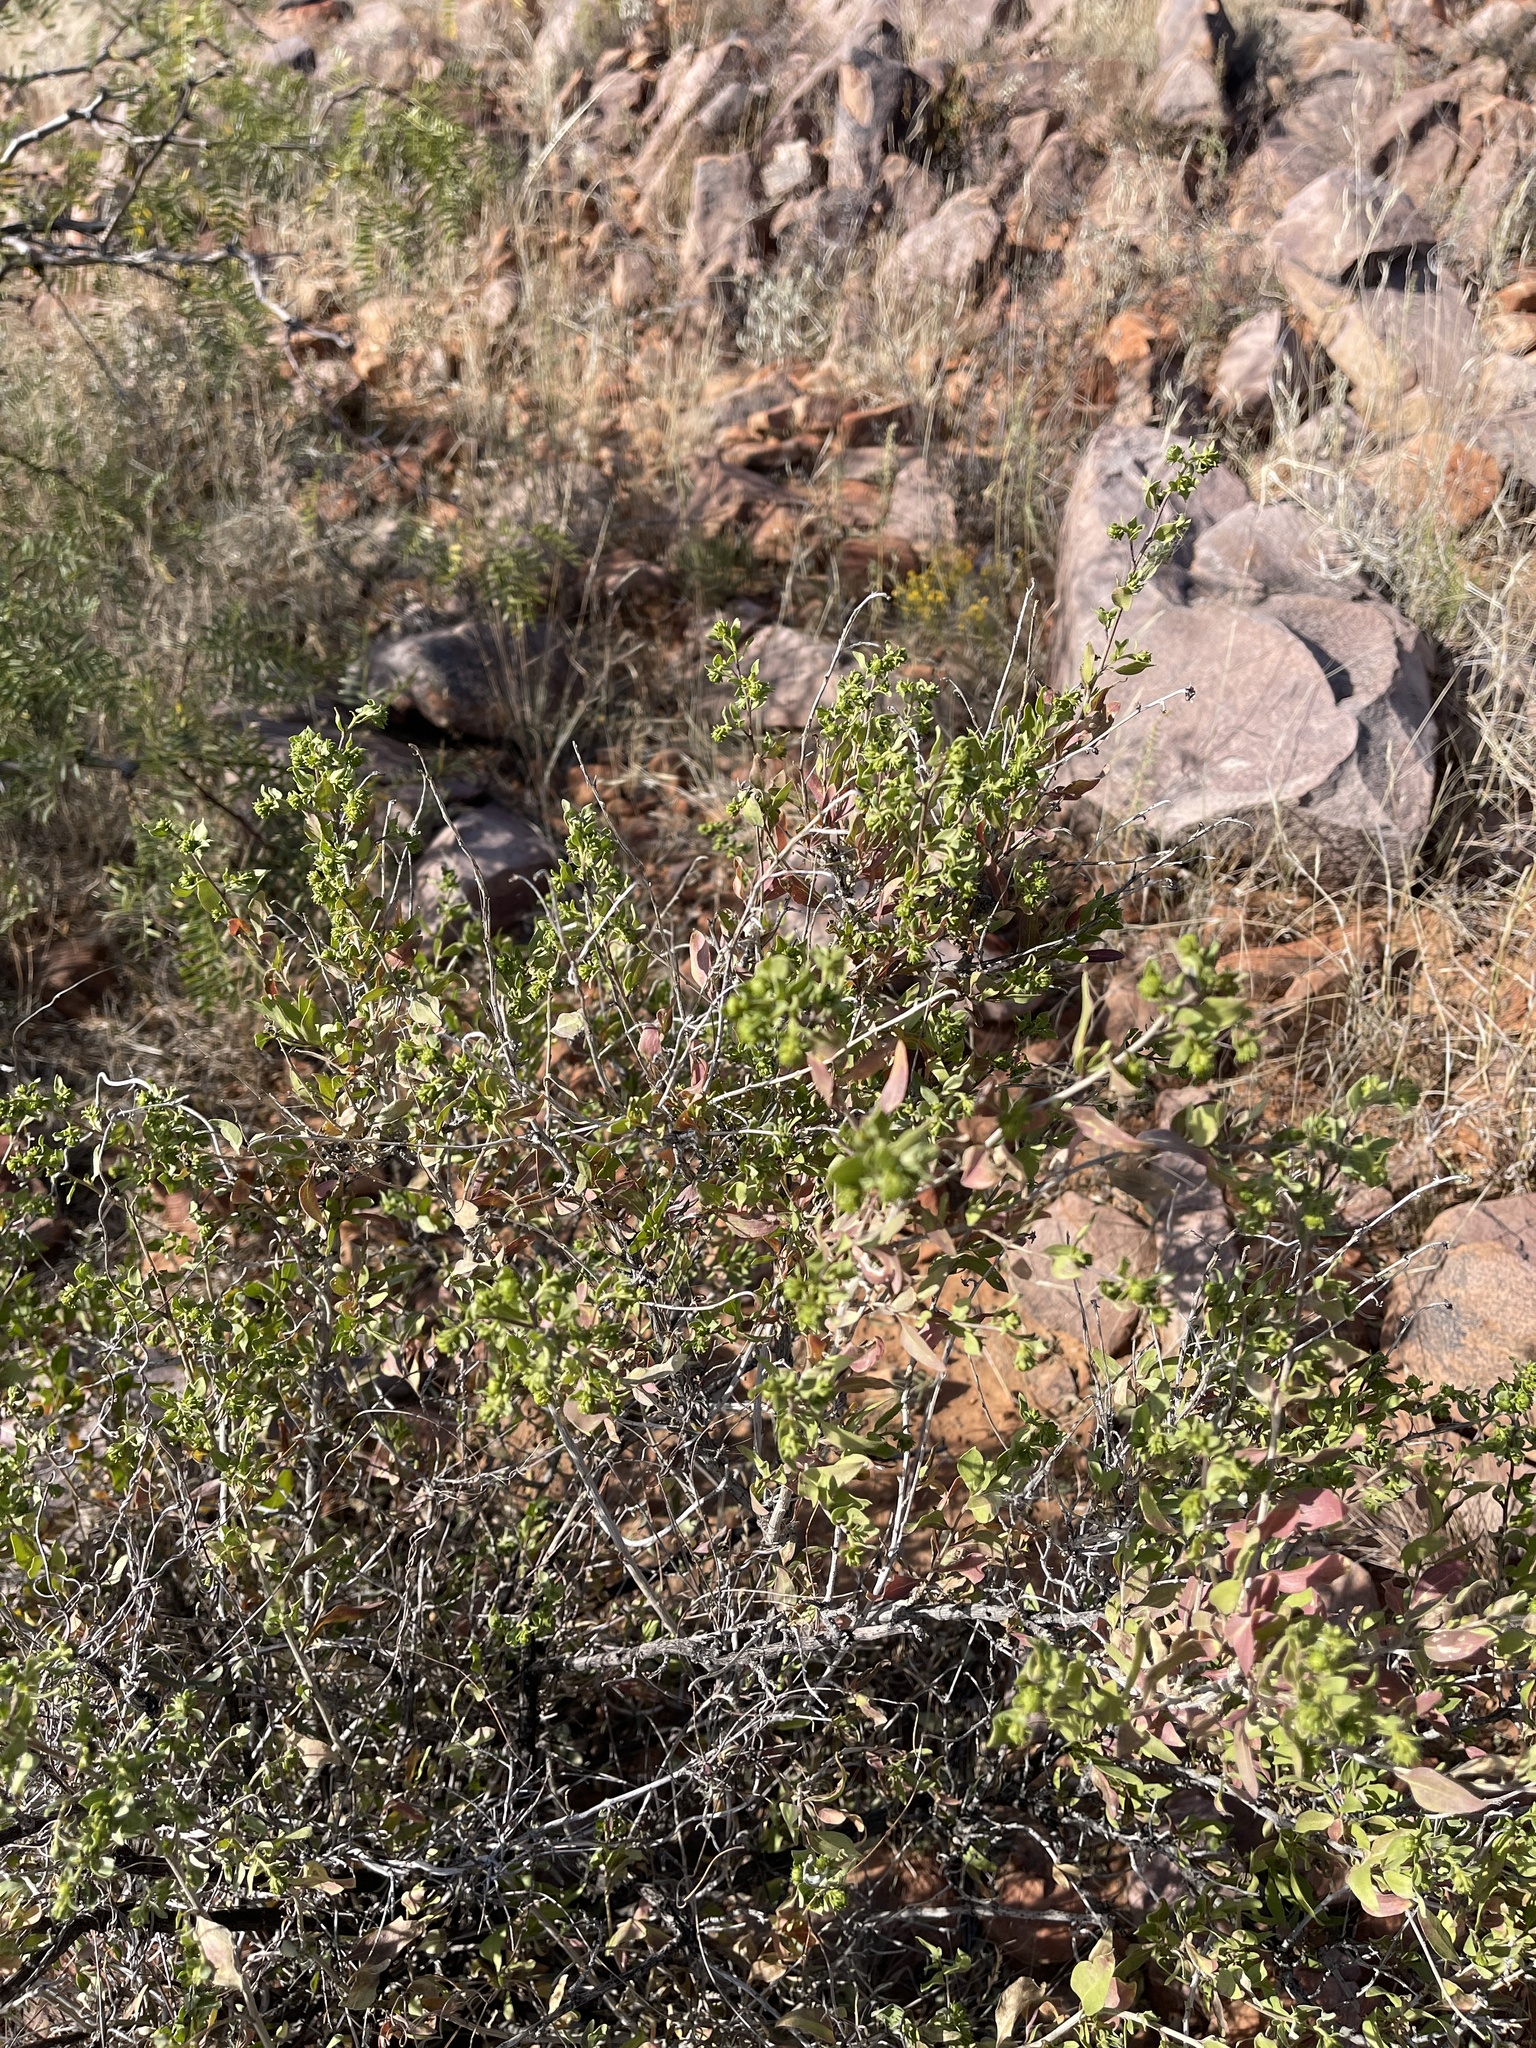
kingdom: Plantae
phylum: Tracheophyta
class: Magnoliopsida
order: Asterales
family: Asteraceae
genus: Flourensia
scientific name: Flourensia cernua
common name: Varnishbush
